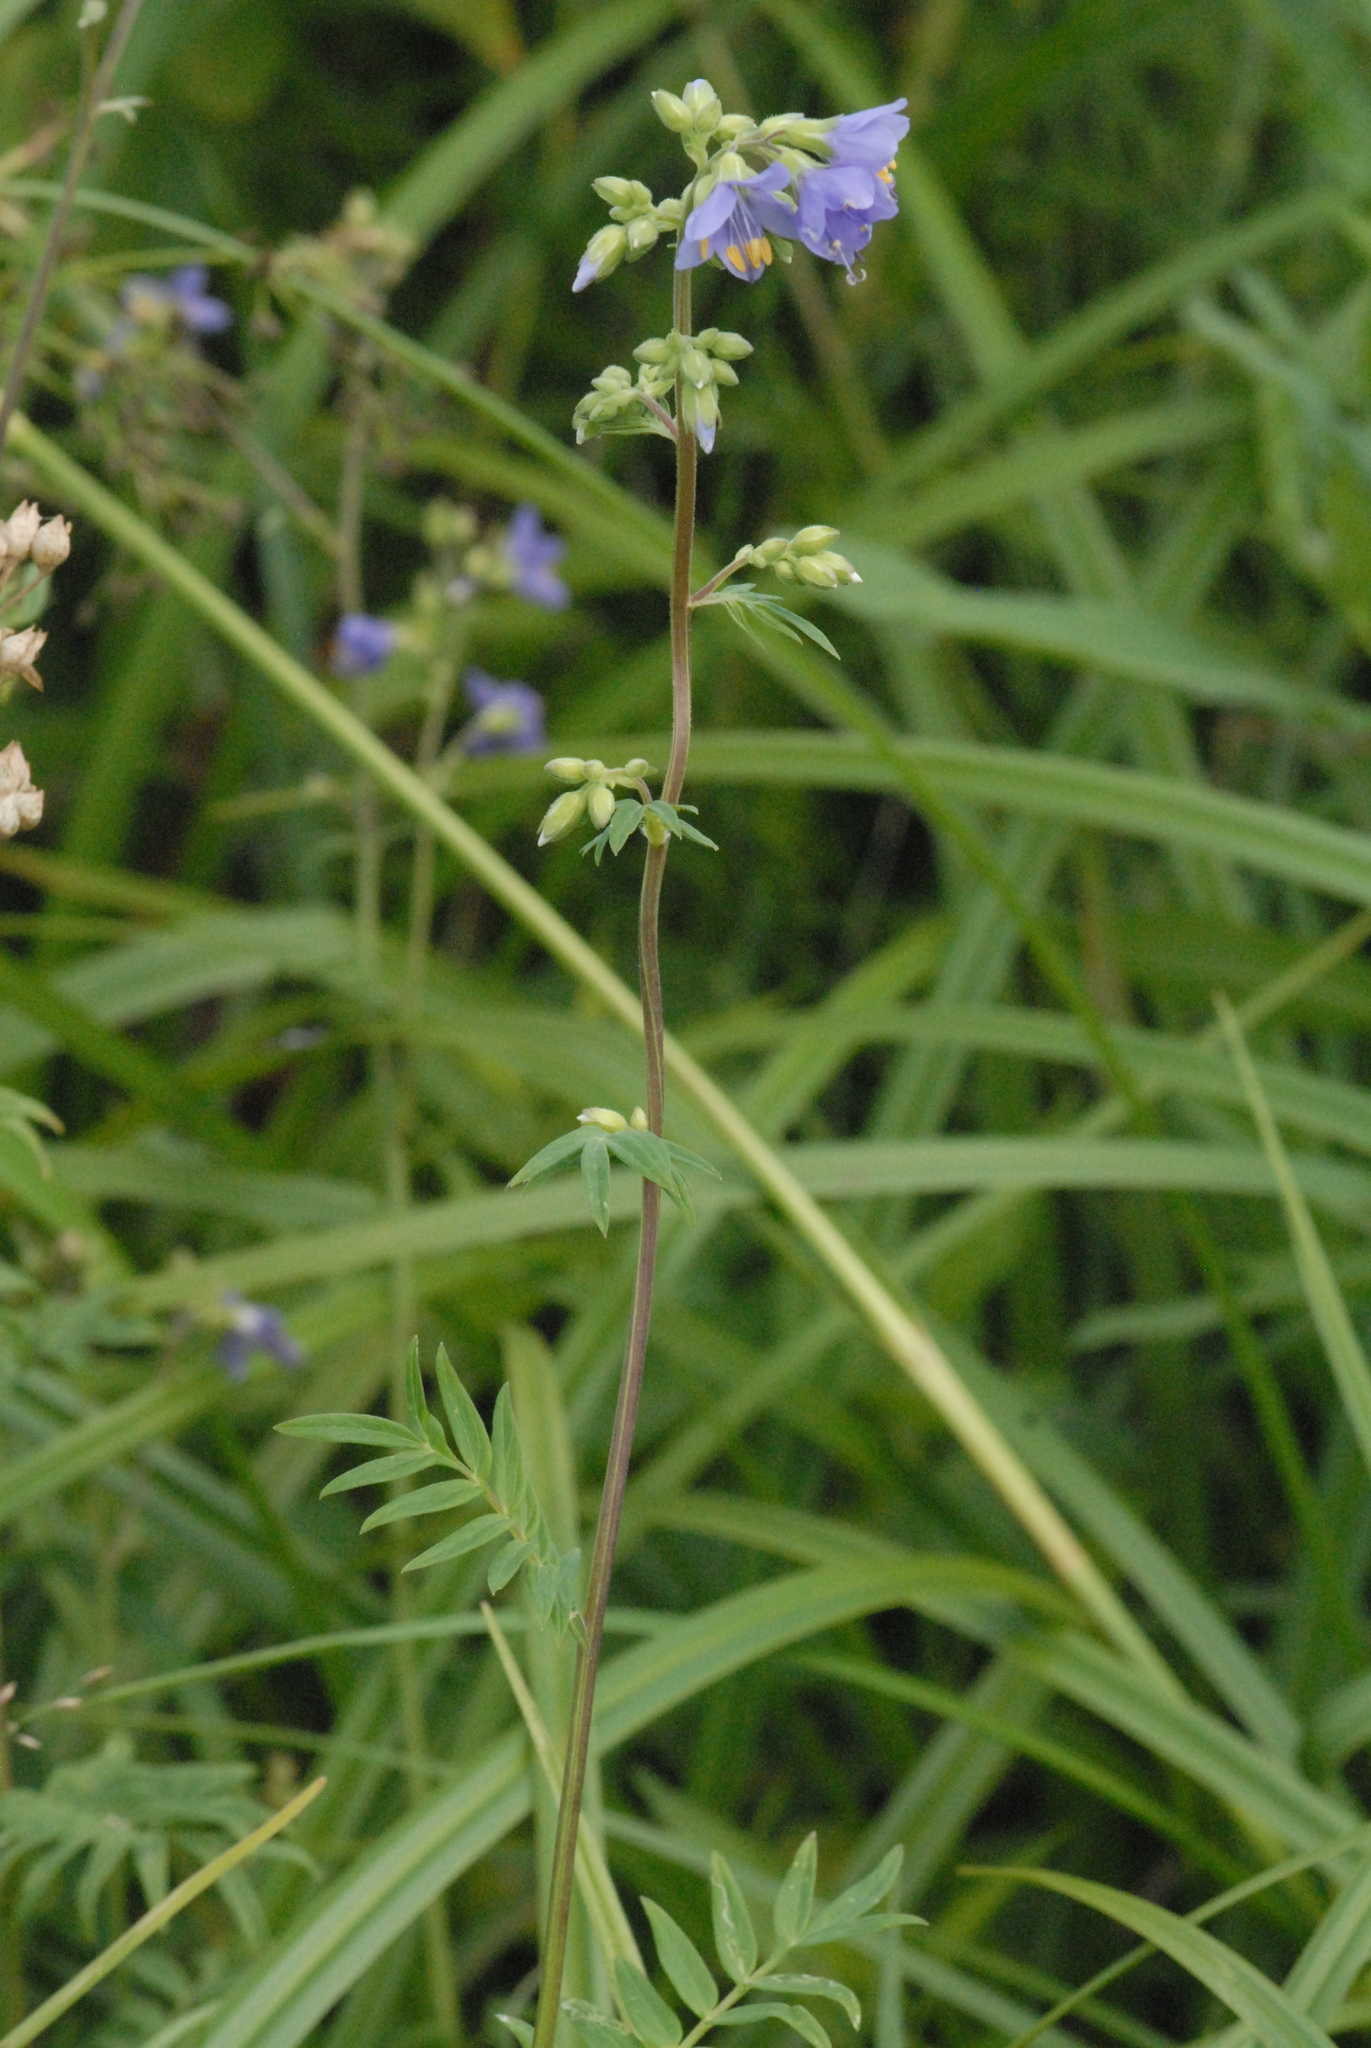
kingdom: Plantae
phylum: Tracheophyta
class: Magnoliopsida
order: Ericales
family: Polemoniaceae
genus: Polemonium
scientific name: Polemonium caeruleum
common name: Jacob's-ladder
